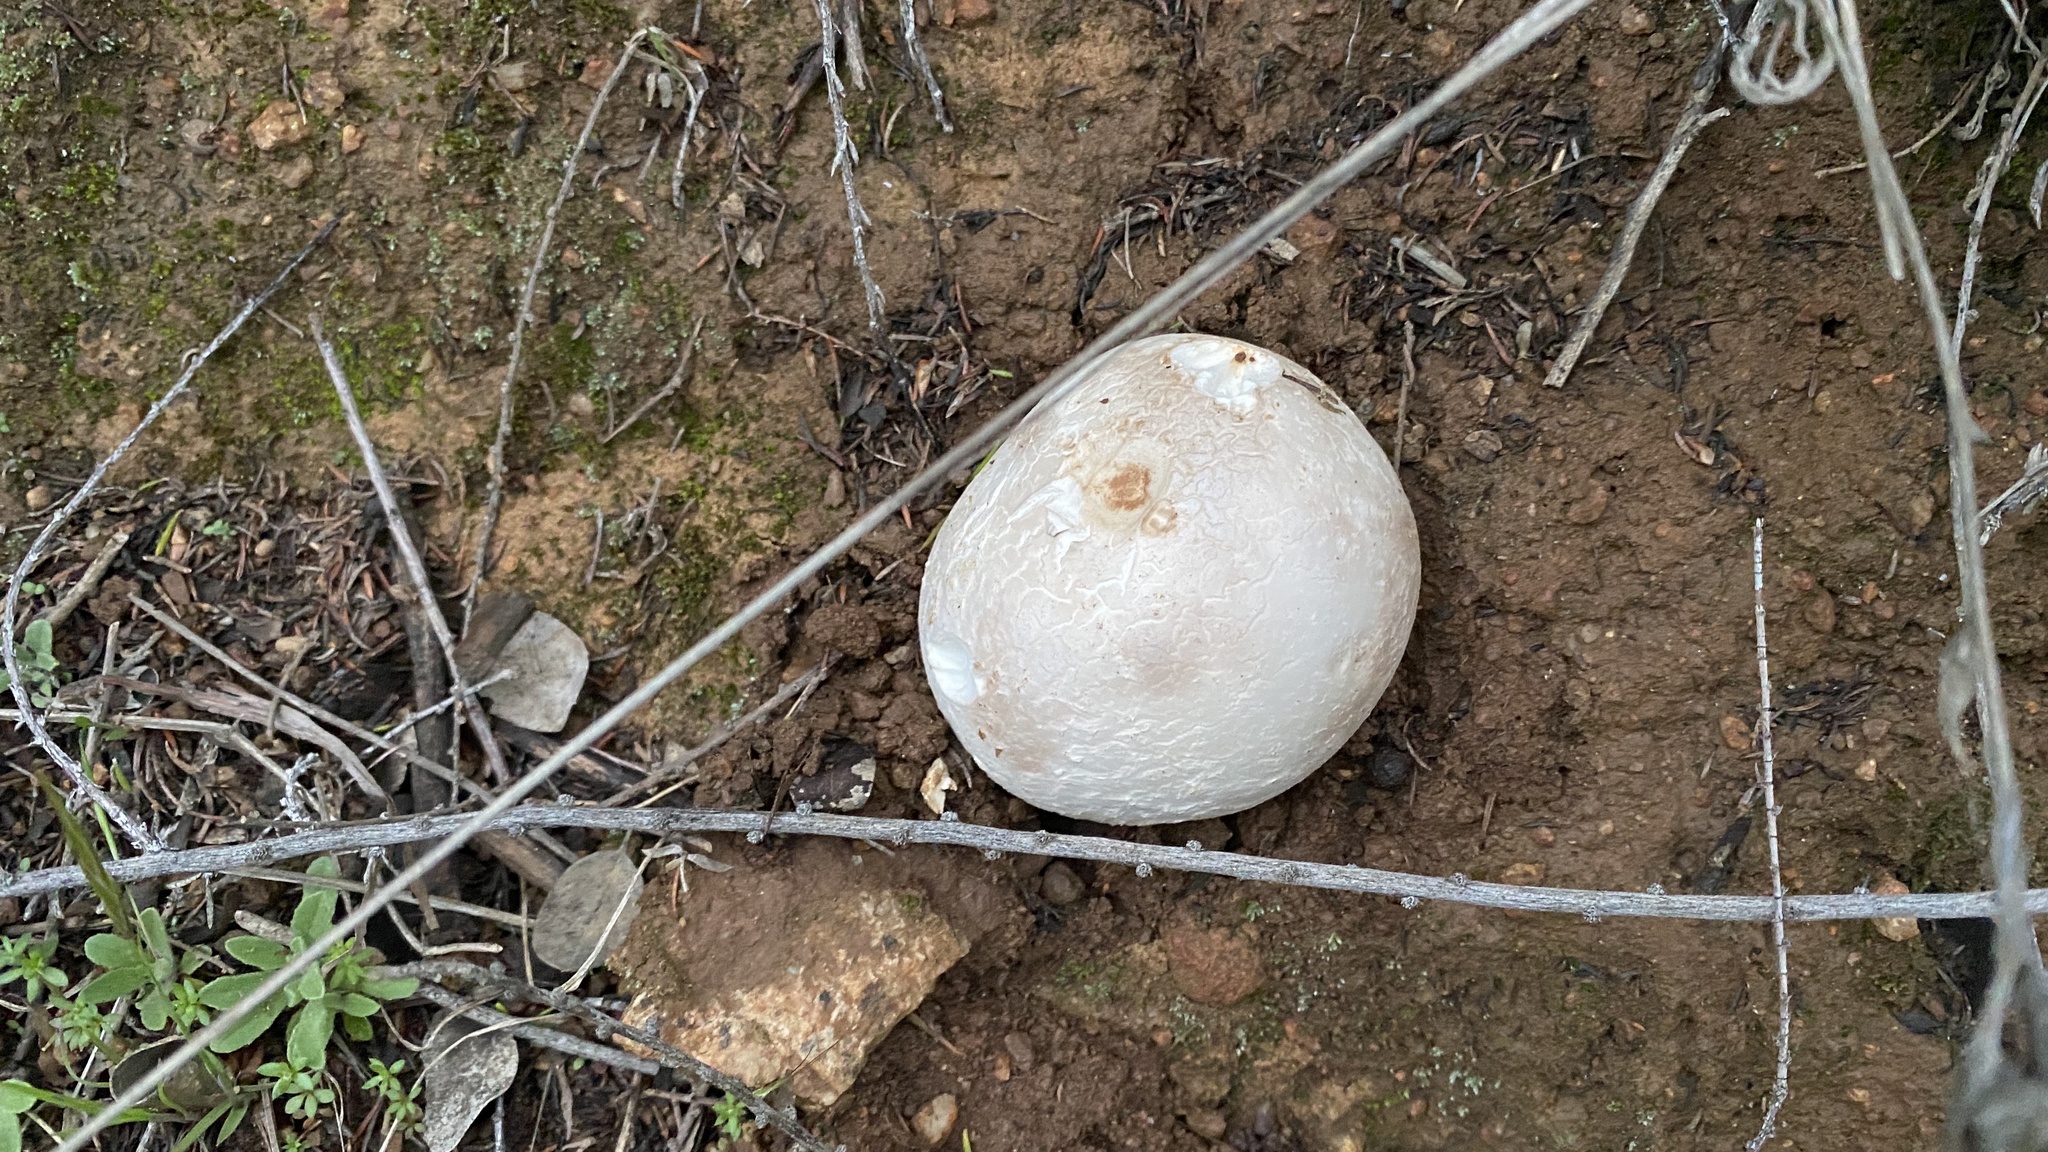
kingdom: Fungi
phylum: Basidiomycota
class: Agaricomycetes
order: Agaricales
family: Lycoperdaceae
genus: Calvatia
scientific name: Calvatia booniana
